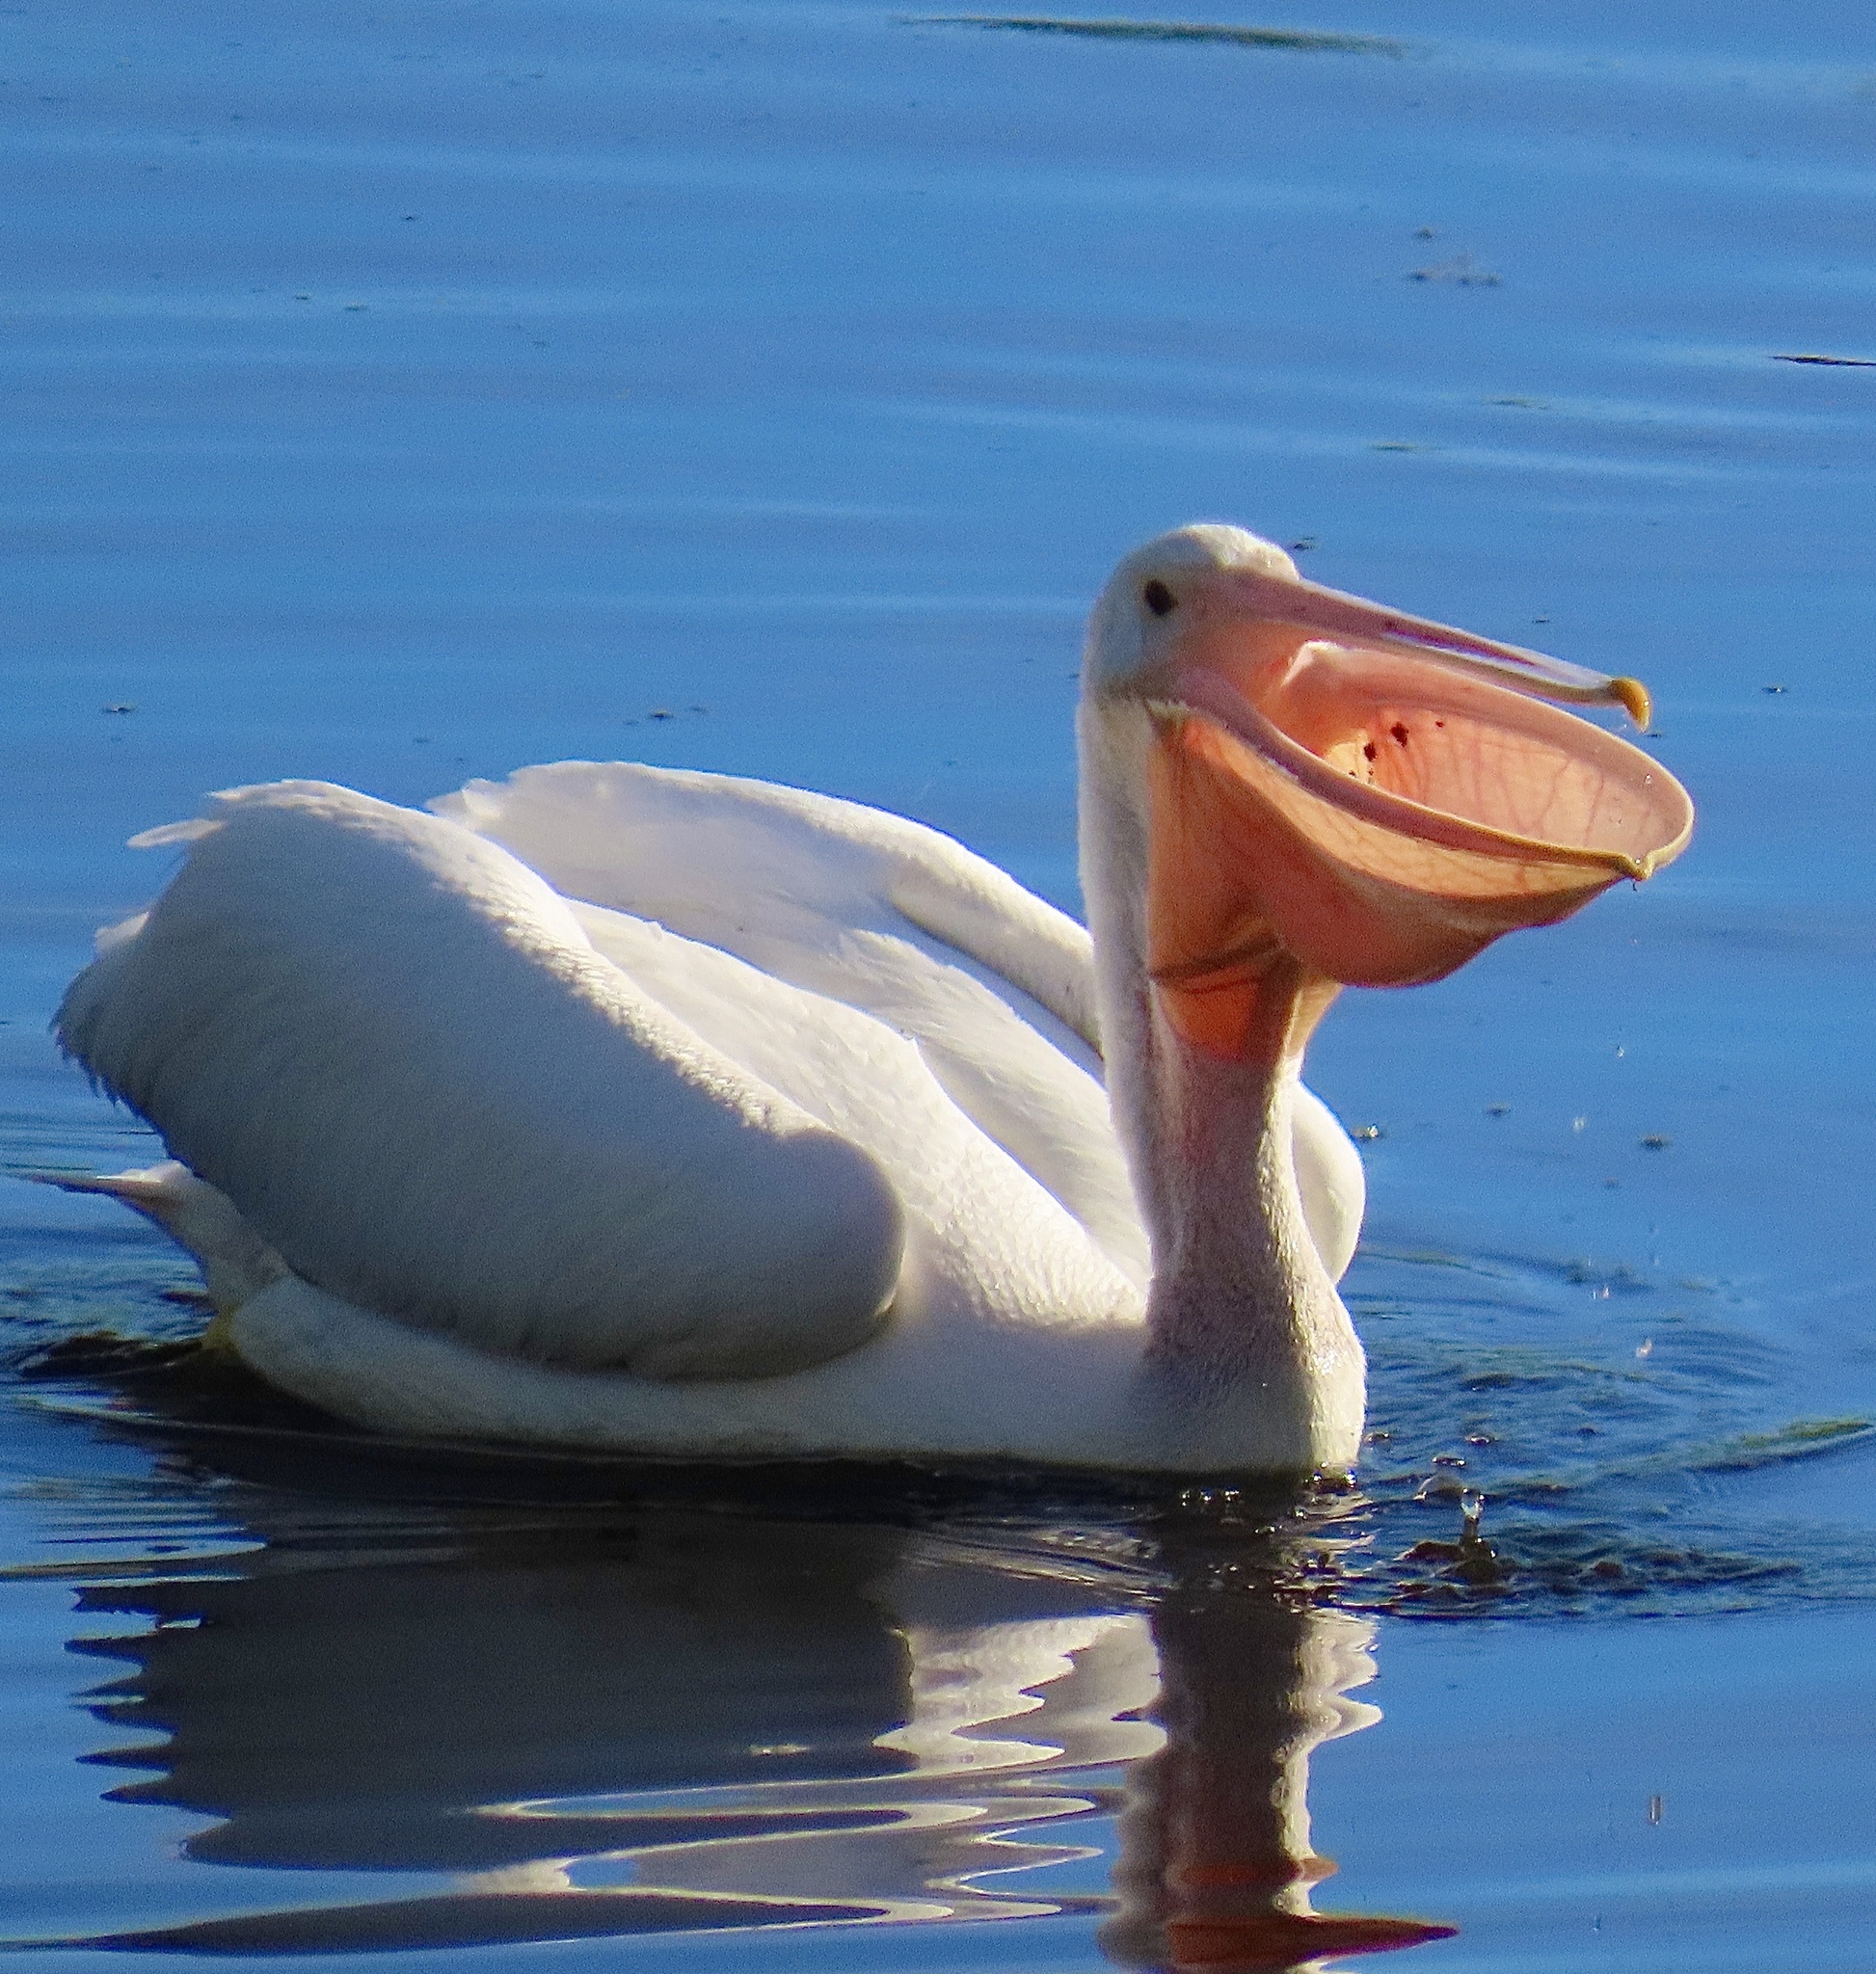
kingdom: Animalia
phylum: Chordata
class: Aves
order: Pelecaniformes
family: Pelecanidae
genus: Pelecanus
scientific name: Pelecanus erythrorhynchos
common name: American white pelican
